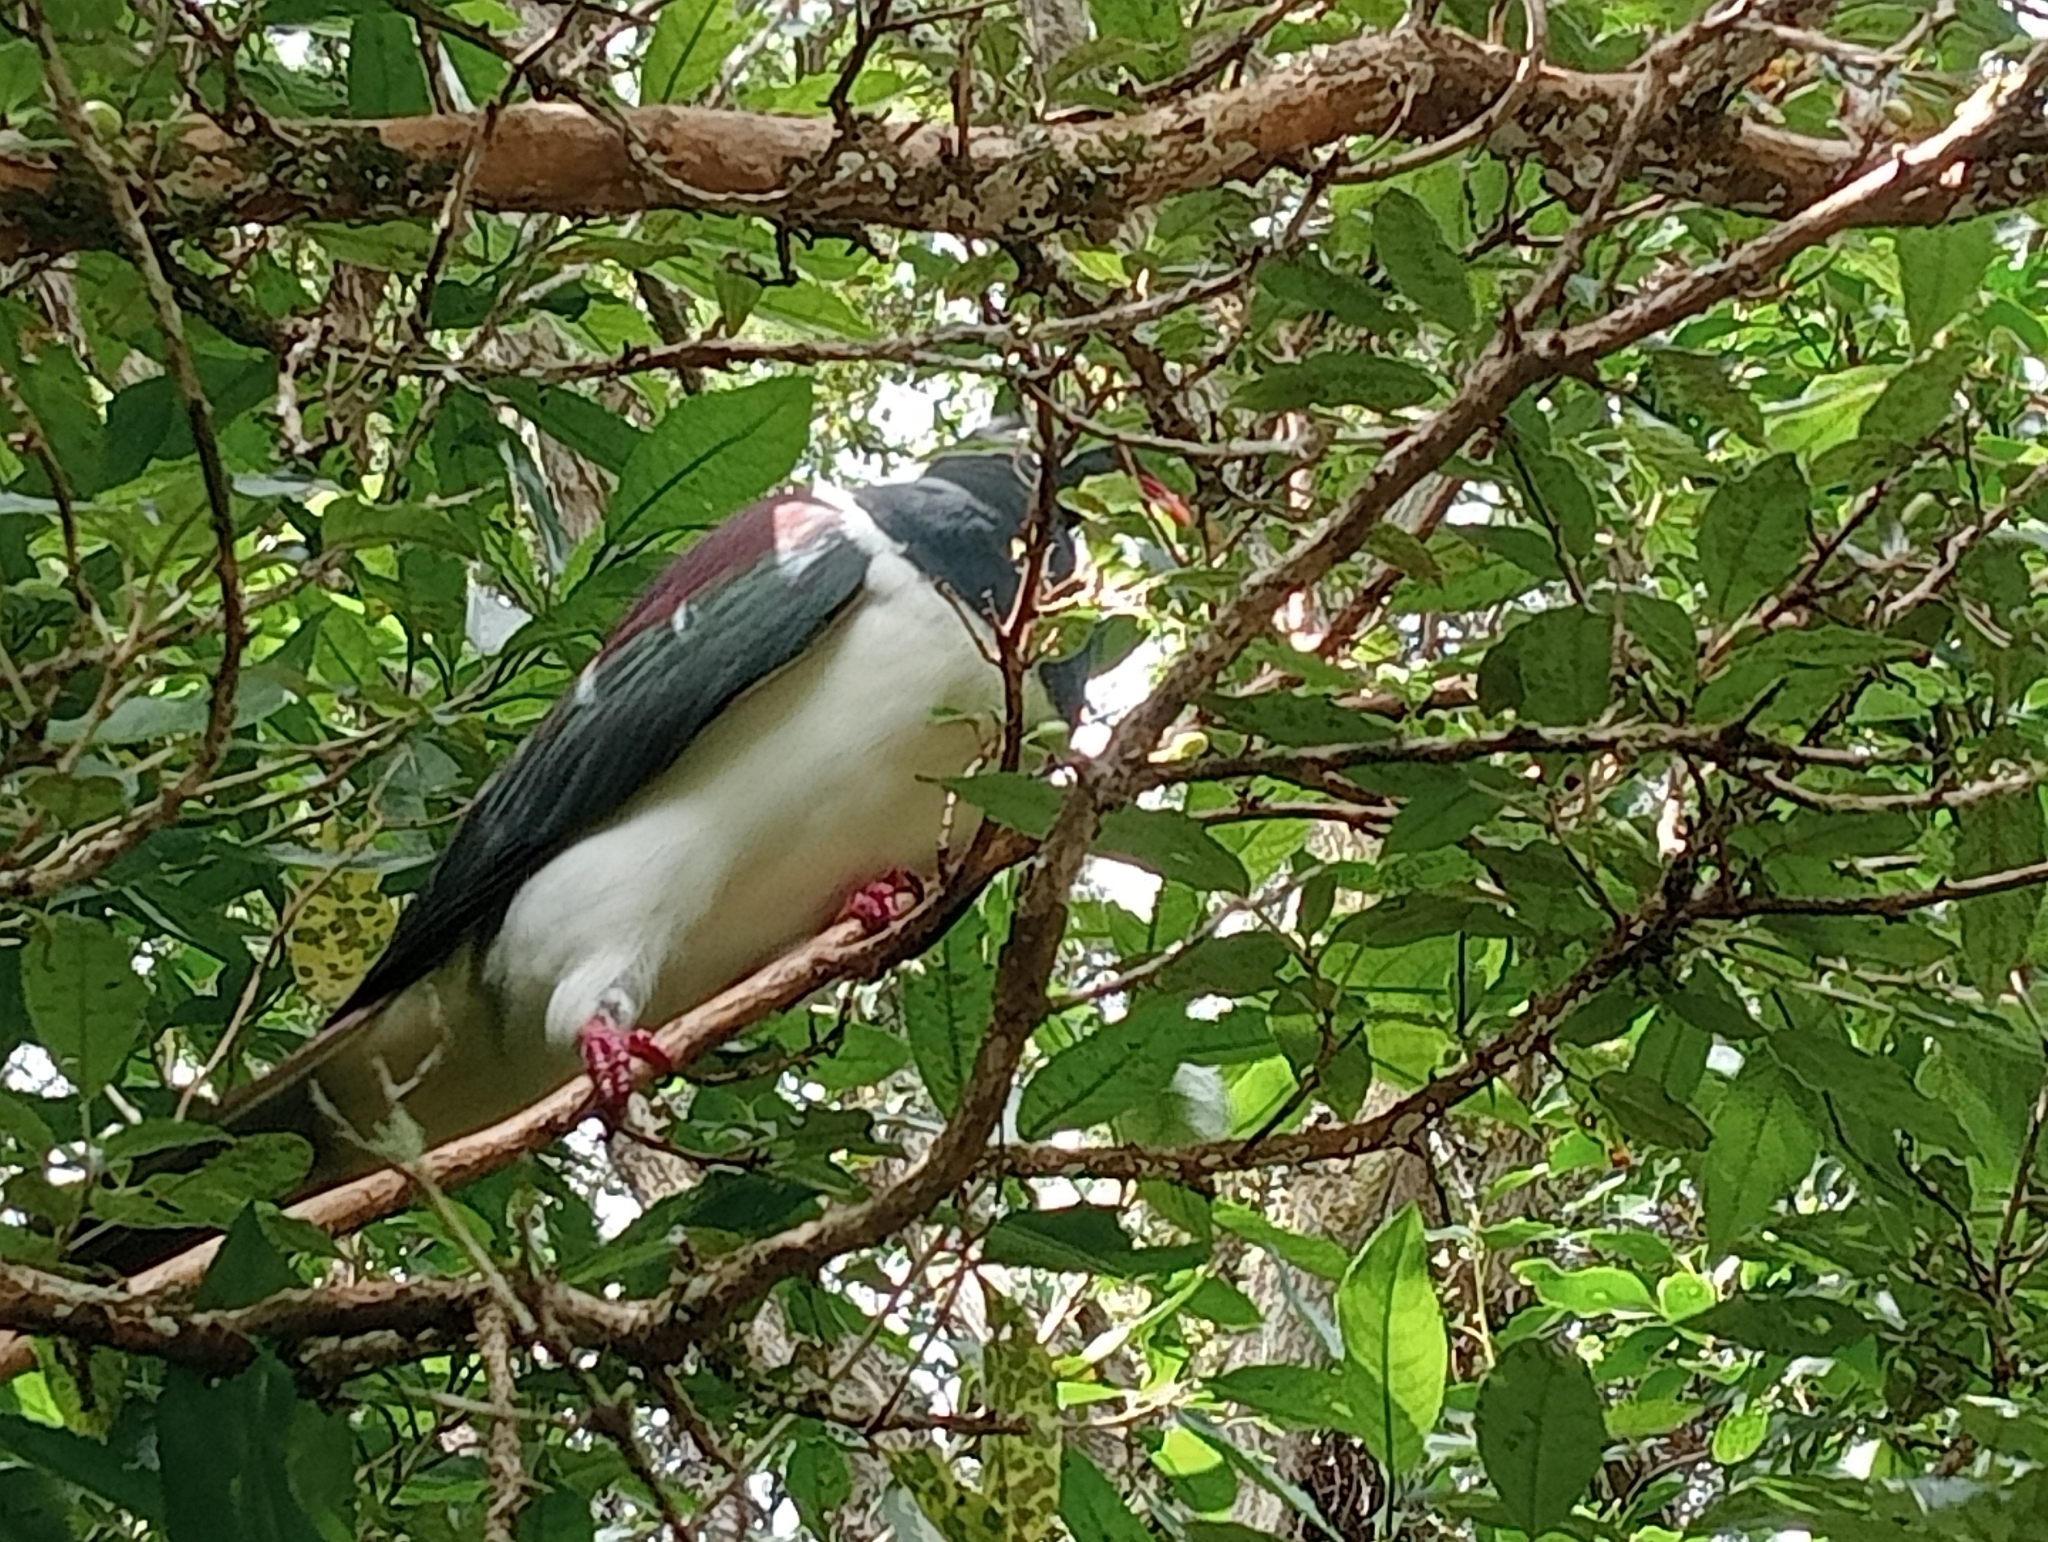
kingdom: Animalia
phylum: Chordata
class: Aves
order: Columbiformes
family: Columbidae
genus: Hemiphaga
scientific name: Hemiphaga novaeseelandiae
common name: New zealand pigeon
